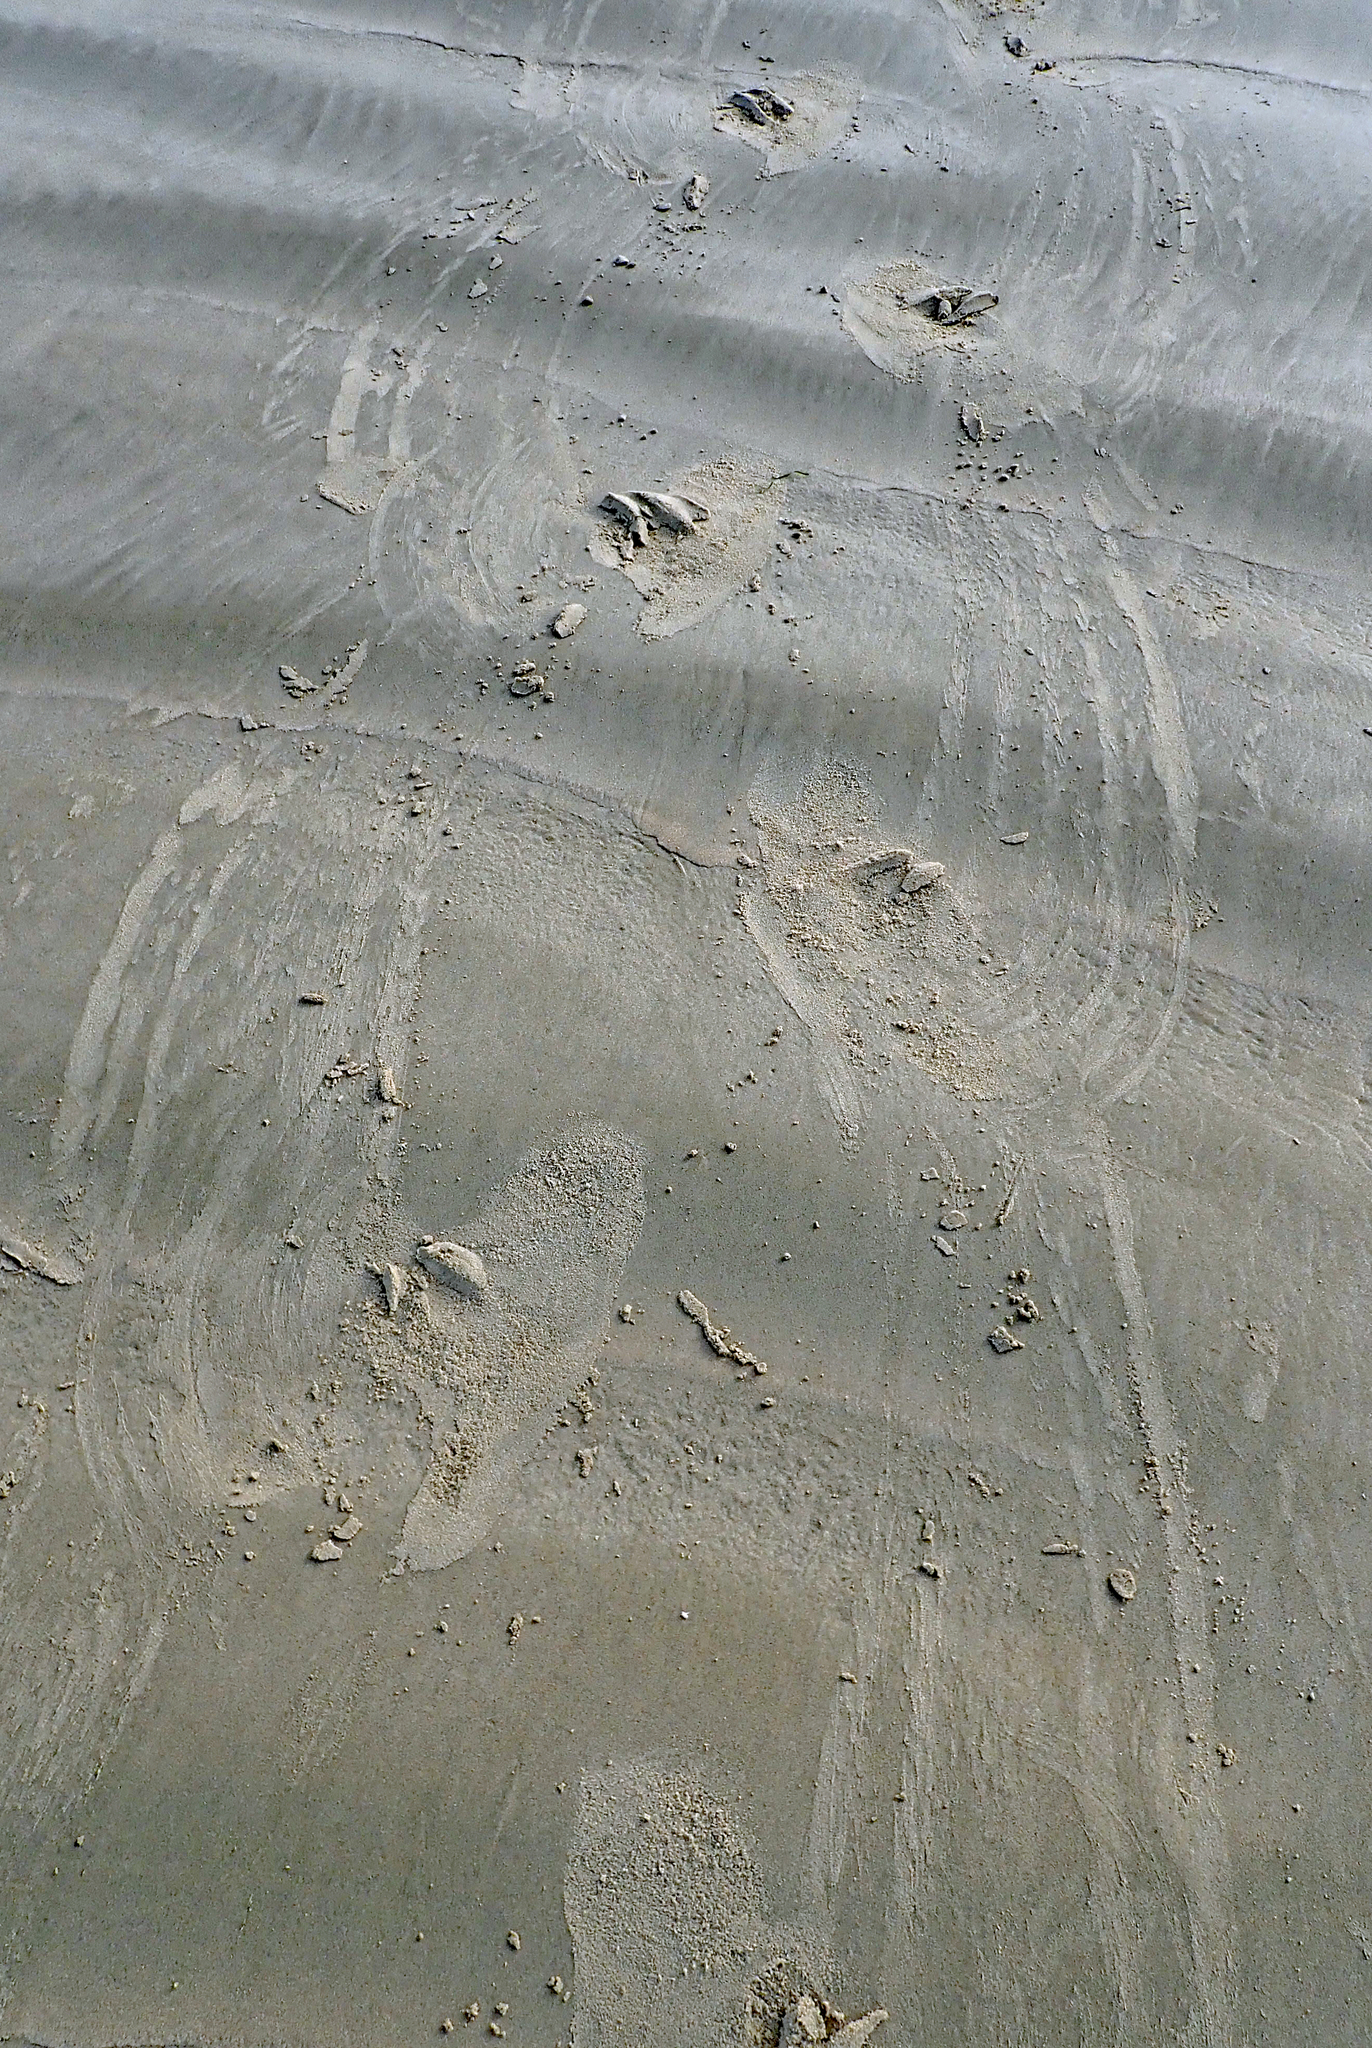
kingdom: Animalia
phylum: Chordata
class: Mammalia
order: Carnivora
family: Otariidae
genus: Phocarctos
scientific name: Phocarctos hookeri
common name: New zealand sea lion
